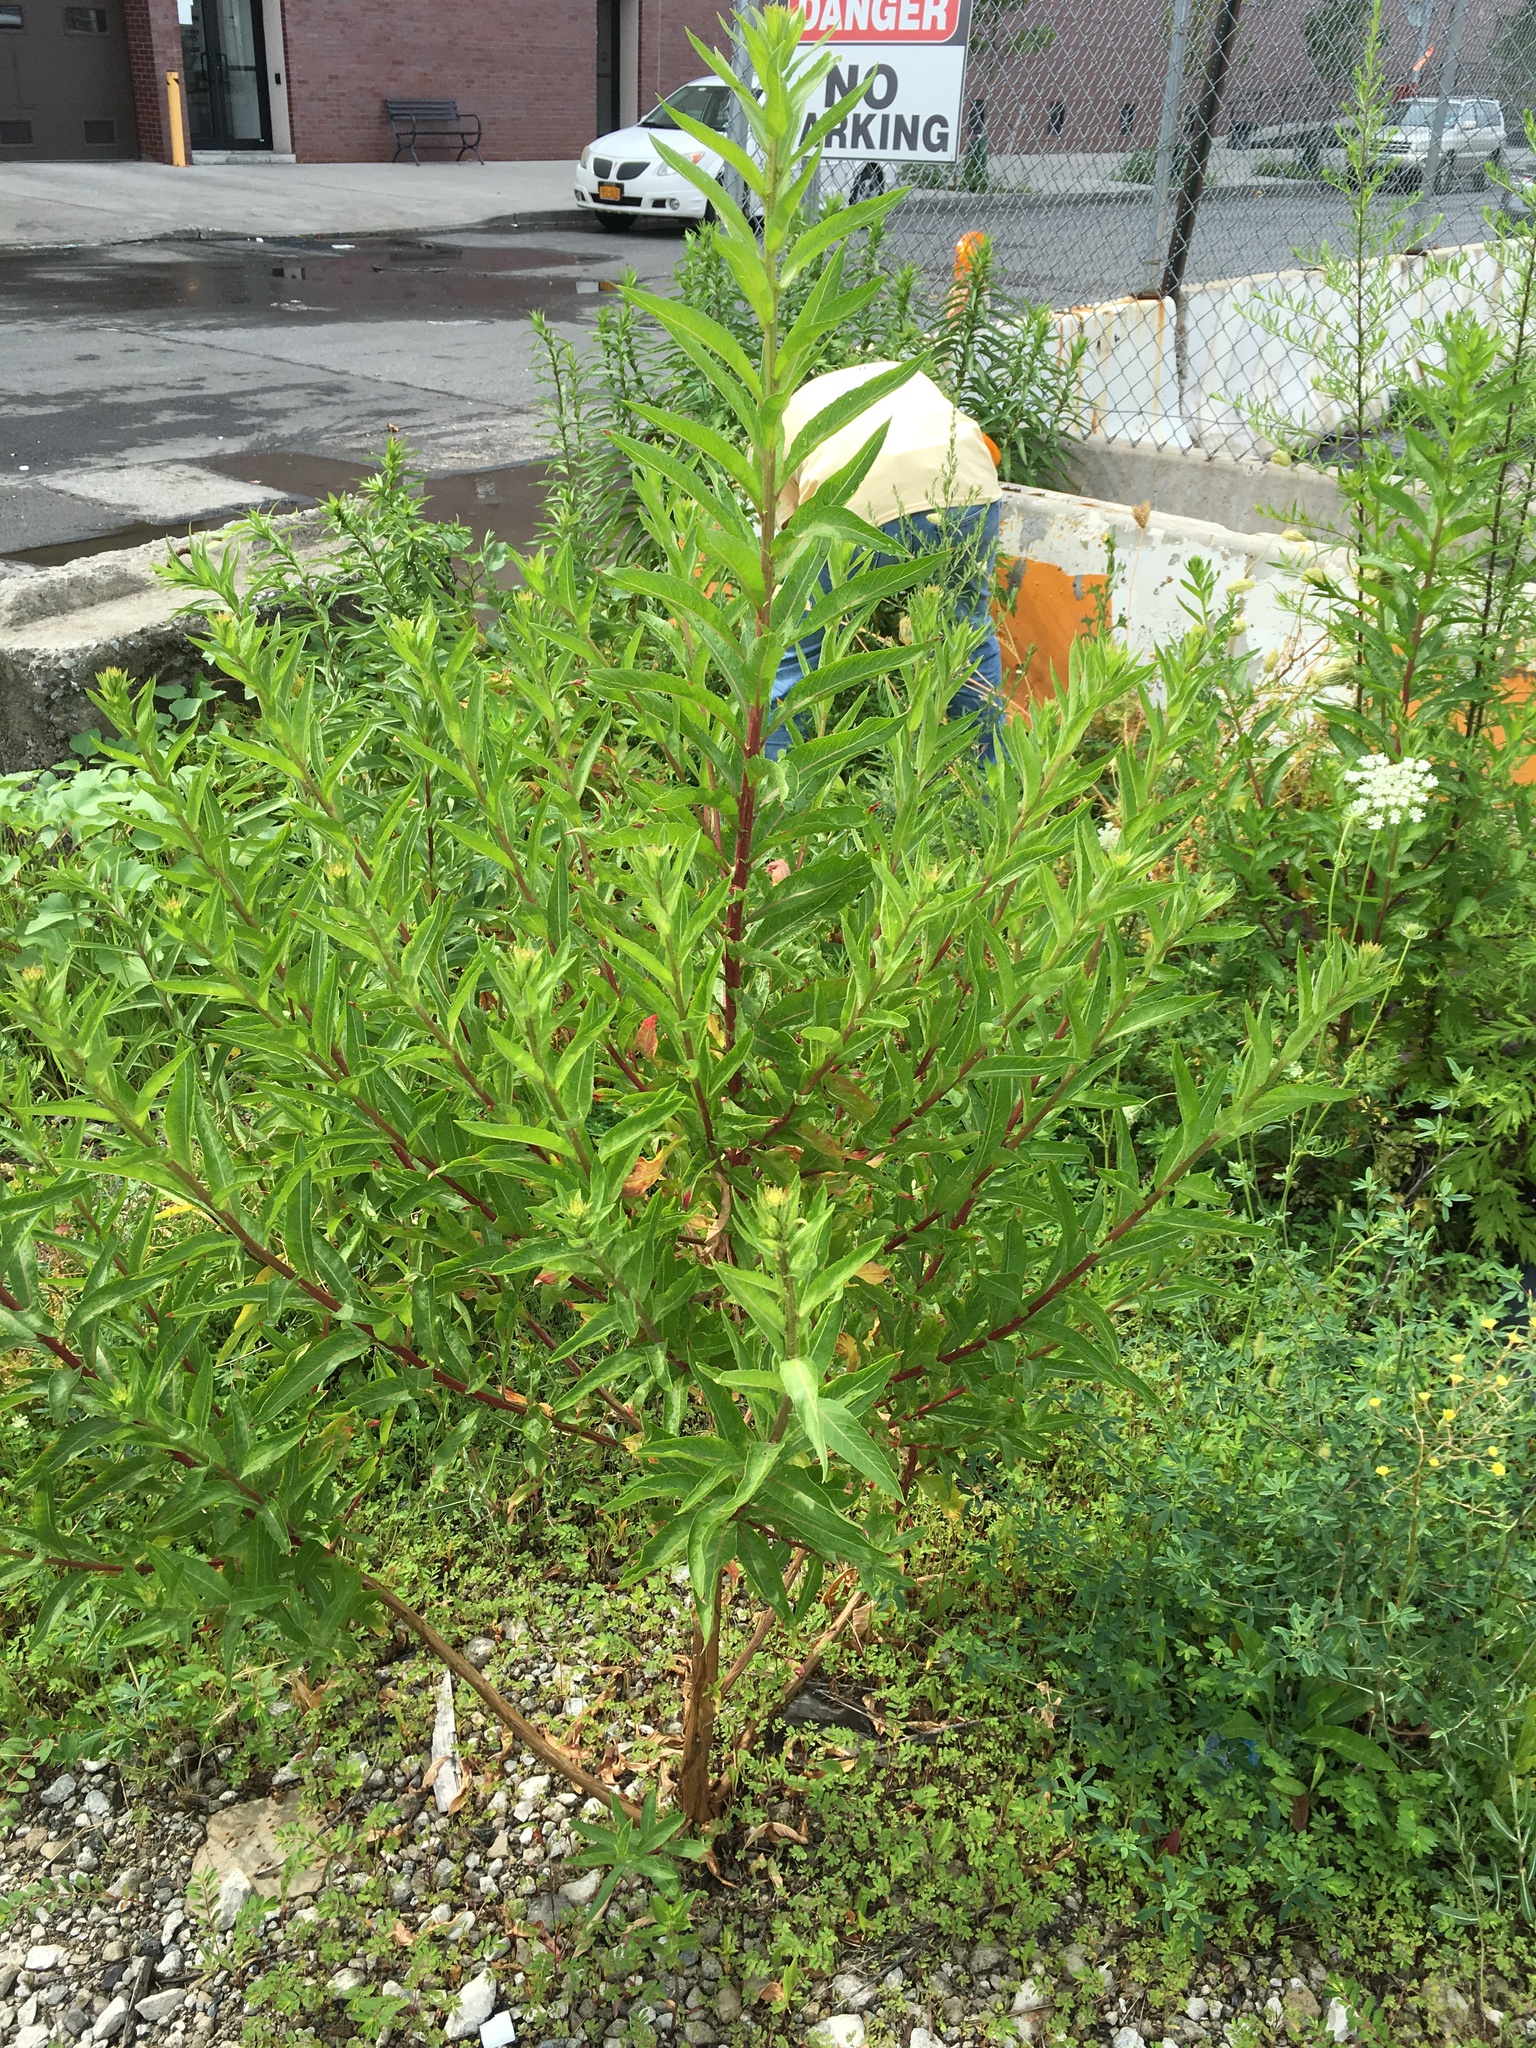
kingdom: Plantae
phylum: Tracheophyta
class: Magnoliopsida
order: Myrtales
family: Onagraceae
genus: Oenothera
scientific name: Oenothera biennis
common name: Common evening-primrose
